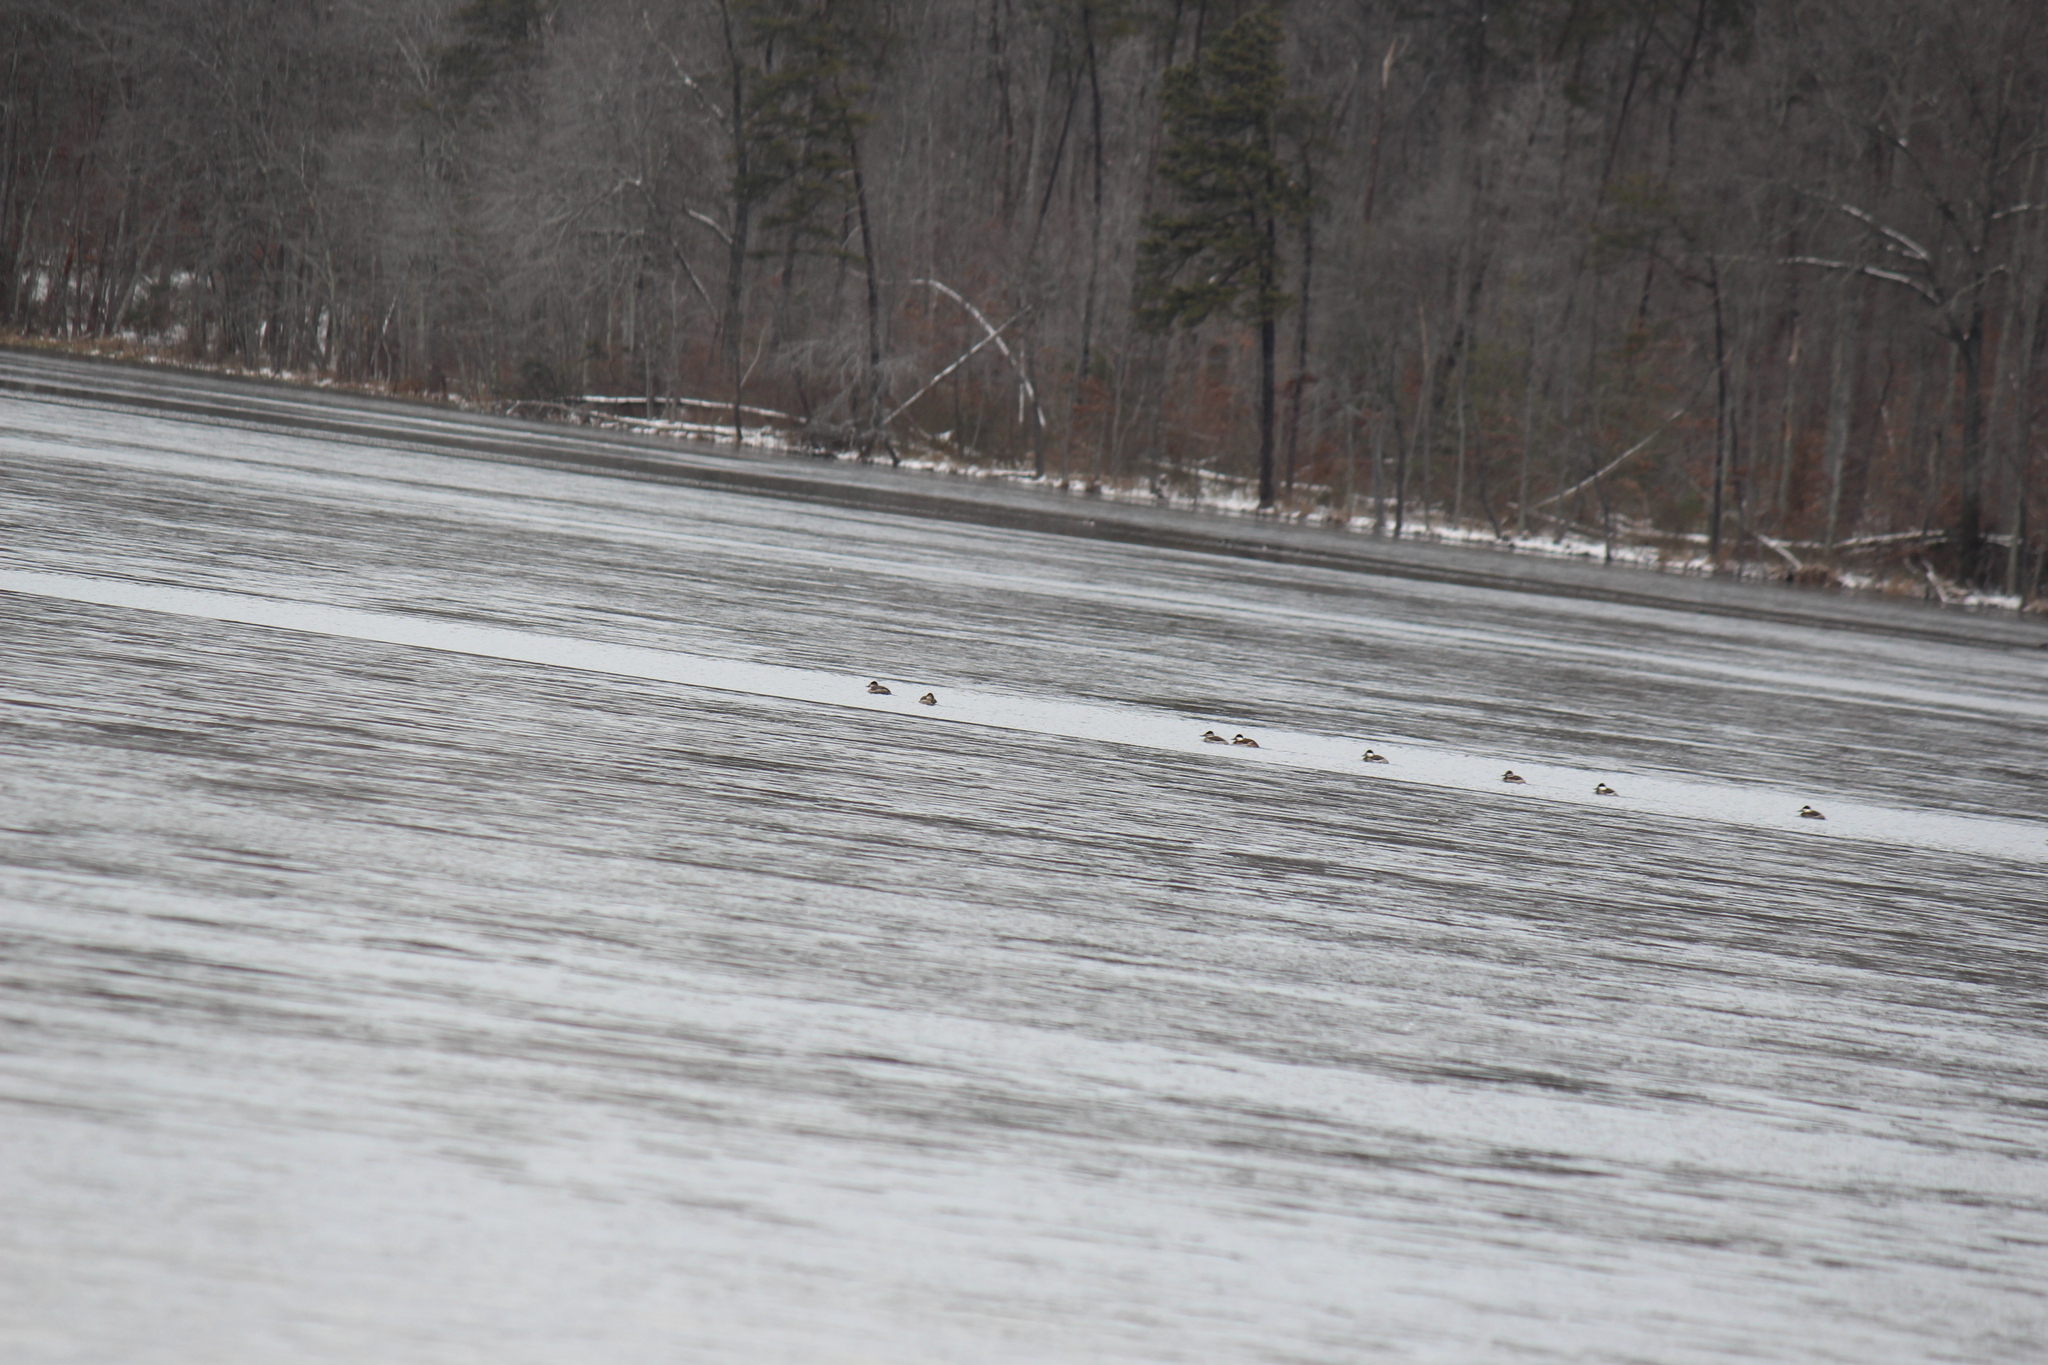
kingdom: Animalia
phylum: Chordata
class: Aves
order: Anseriformes
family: Anatidae
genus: Oxyura
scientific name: Oxyura jamaicensis
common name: Ruddy duck
